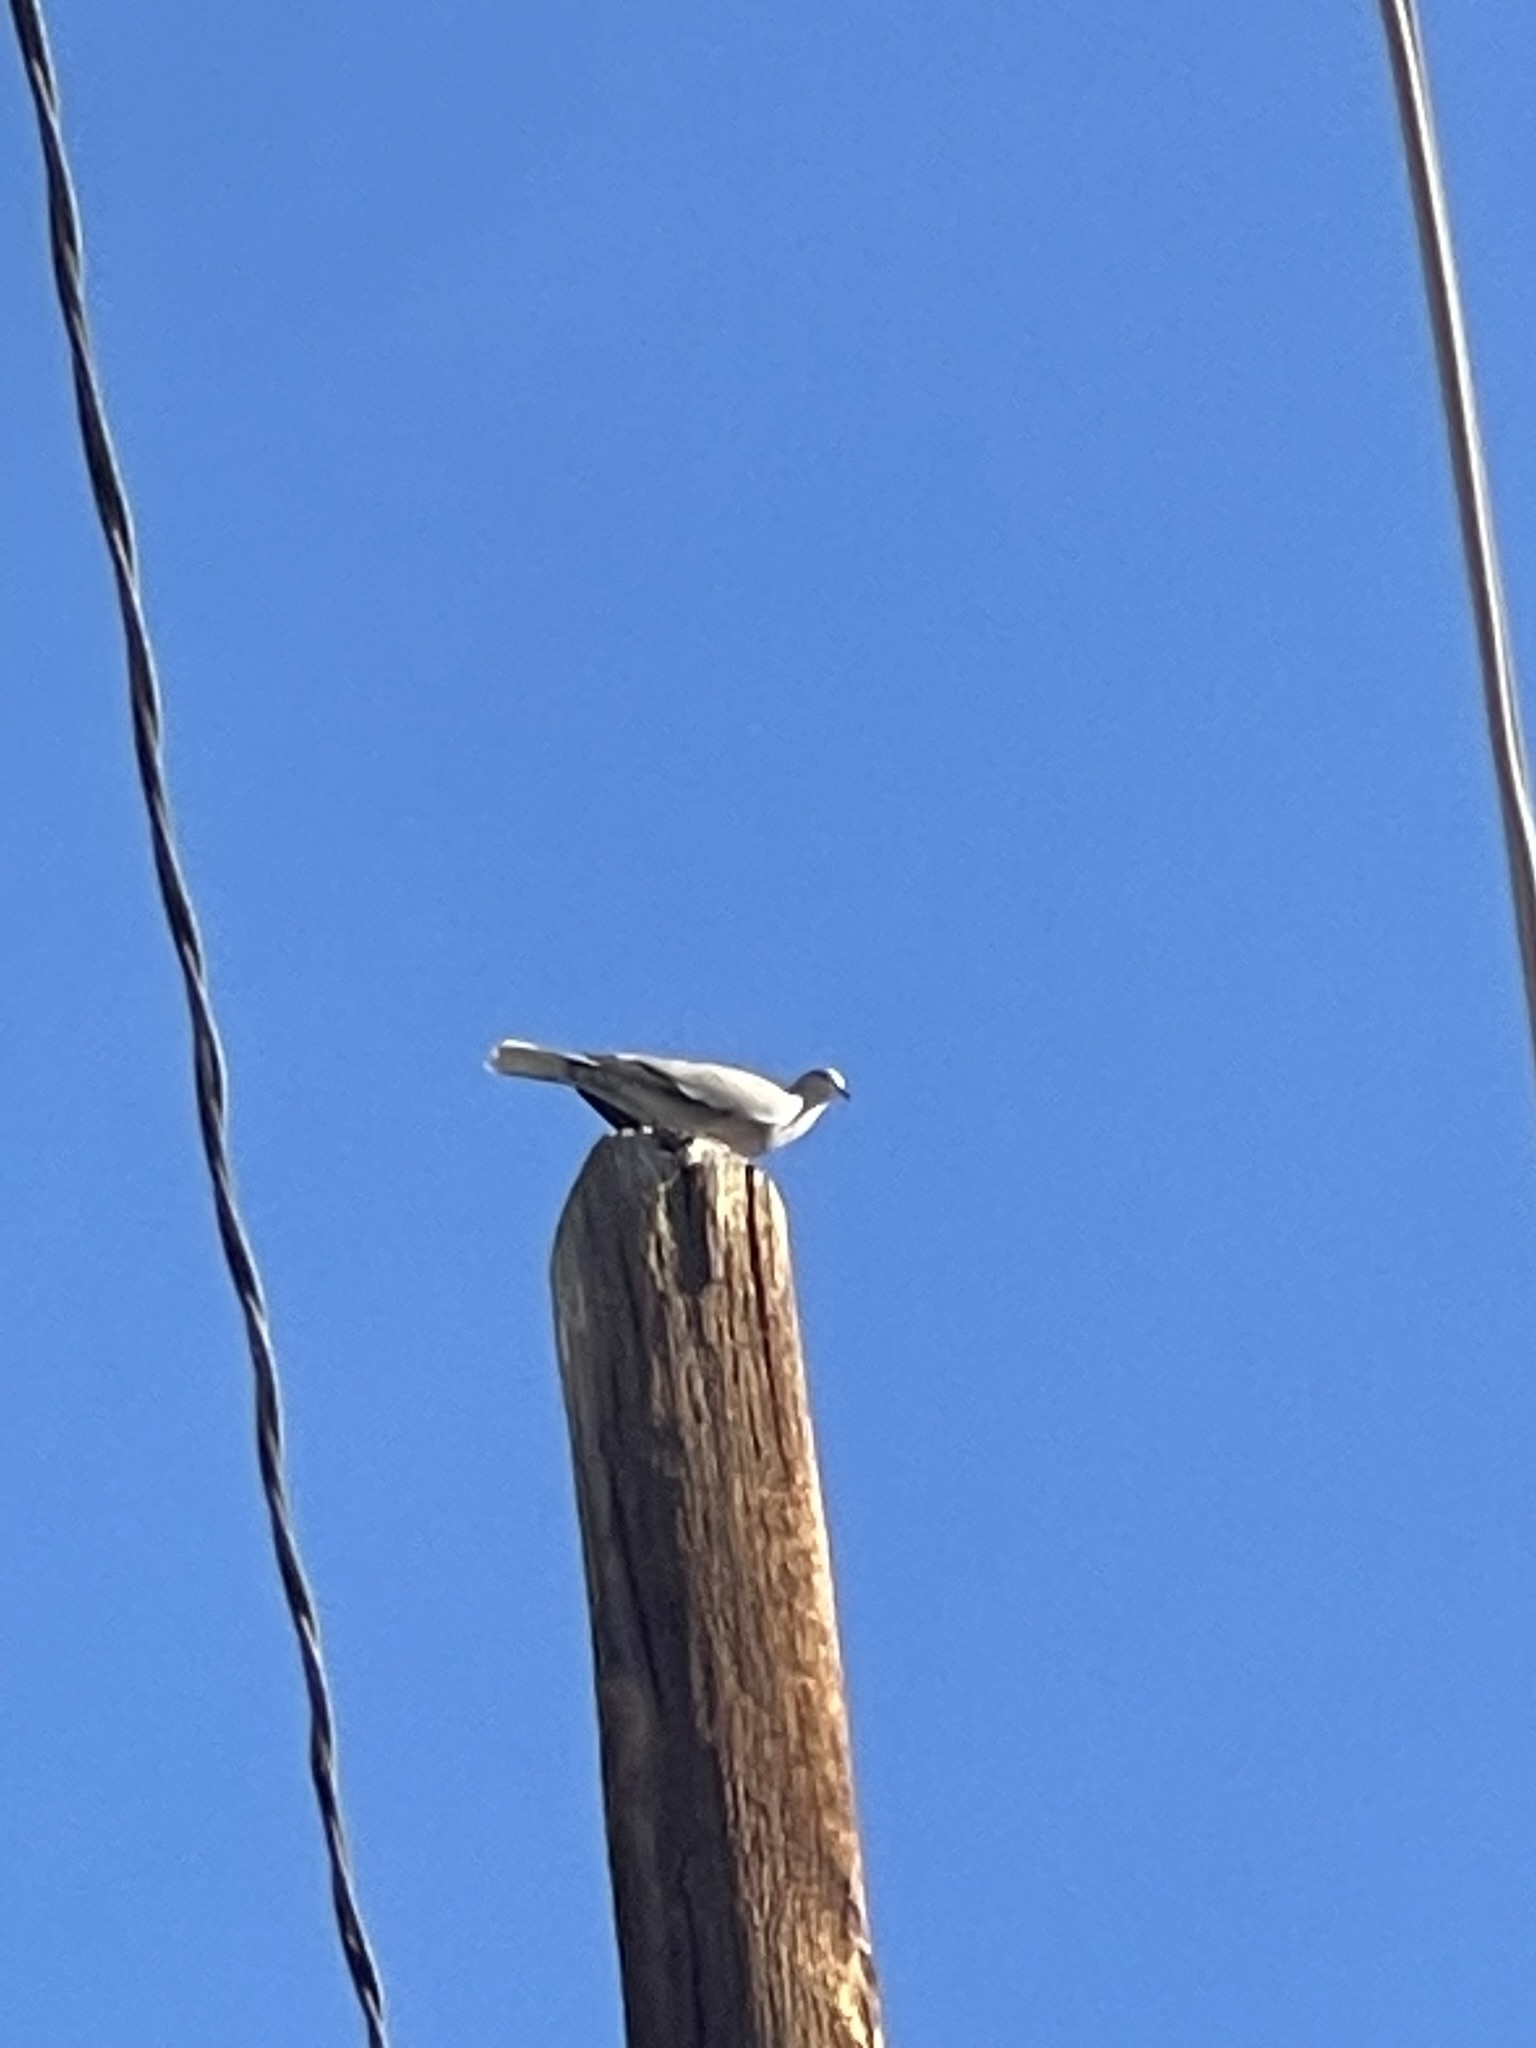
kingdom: Animalia
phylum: Chordata
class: Aves
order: Columbiformes
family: Columbidae
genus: Streptopelia
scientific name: Streptopelia decaocto
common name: Eurasian collared dove
